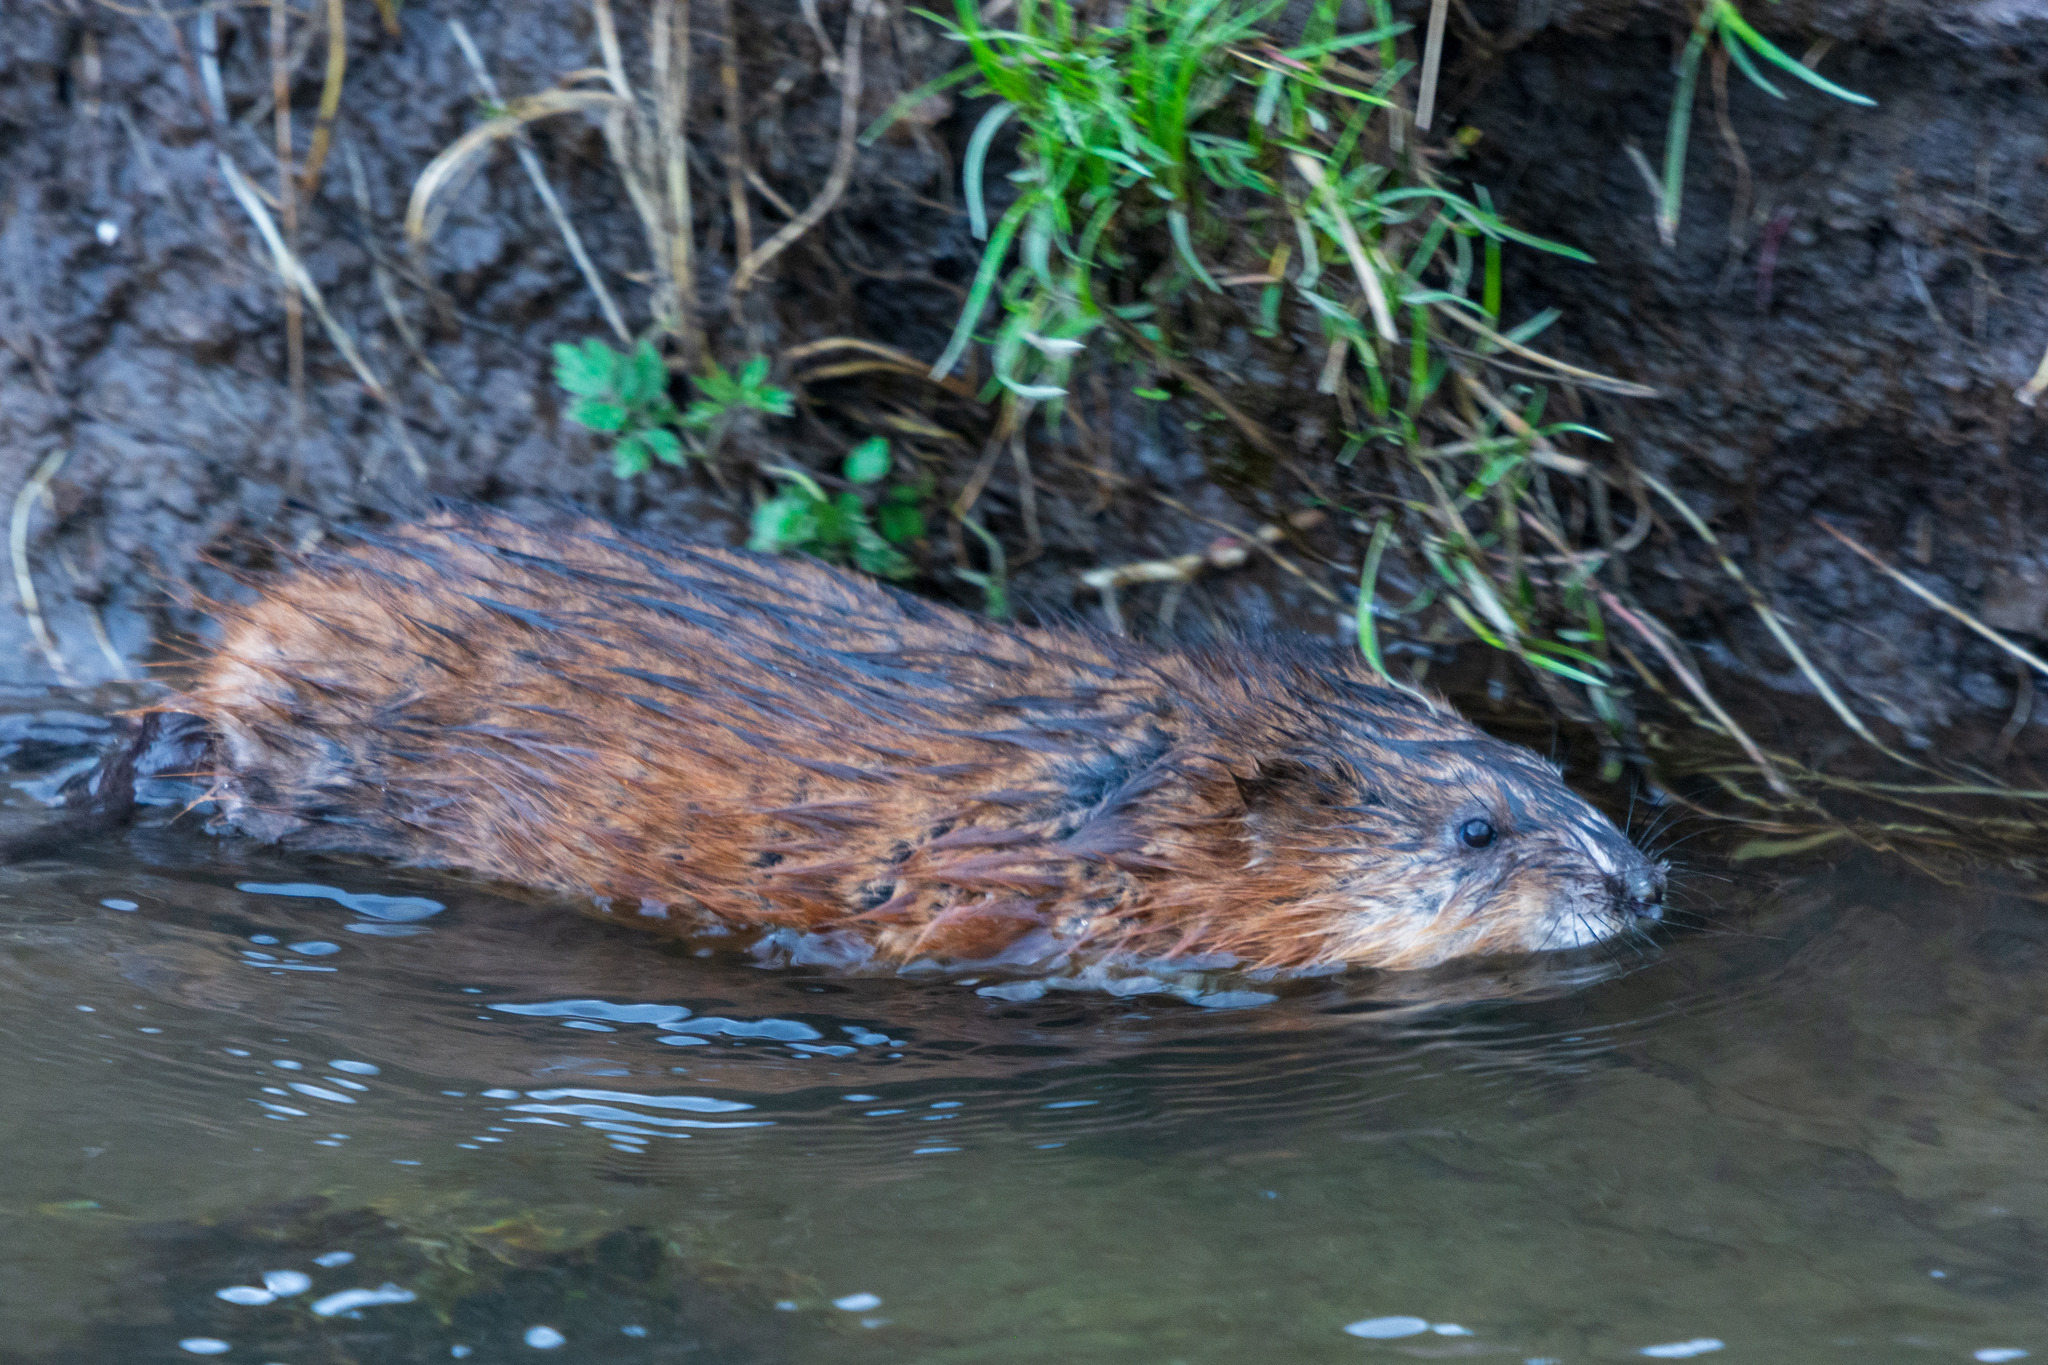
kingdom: Animalia
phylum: Chordata
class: Mammalia
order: Rodentia
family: Cricetidae
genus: Ondatra
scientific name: Ondatra zibethicus
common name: Muskrat
